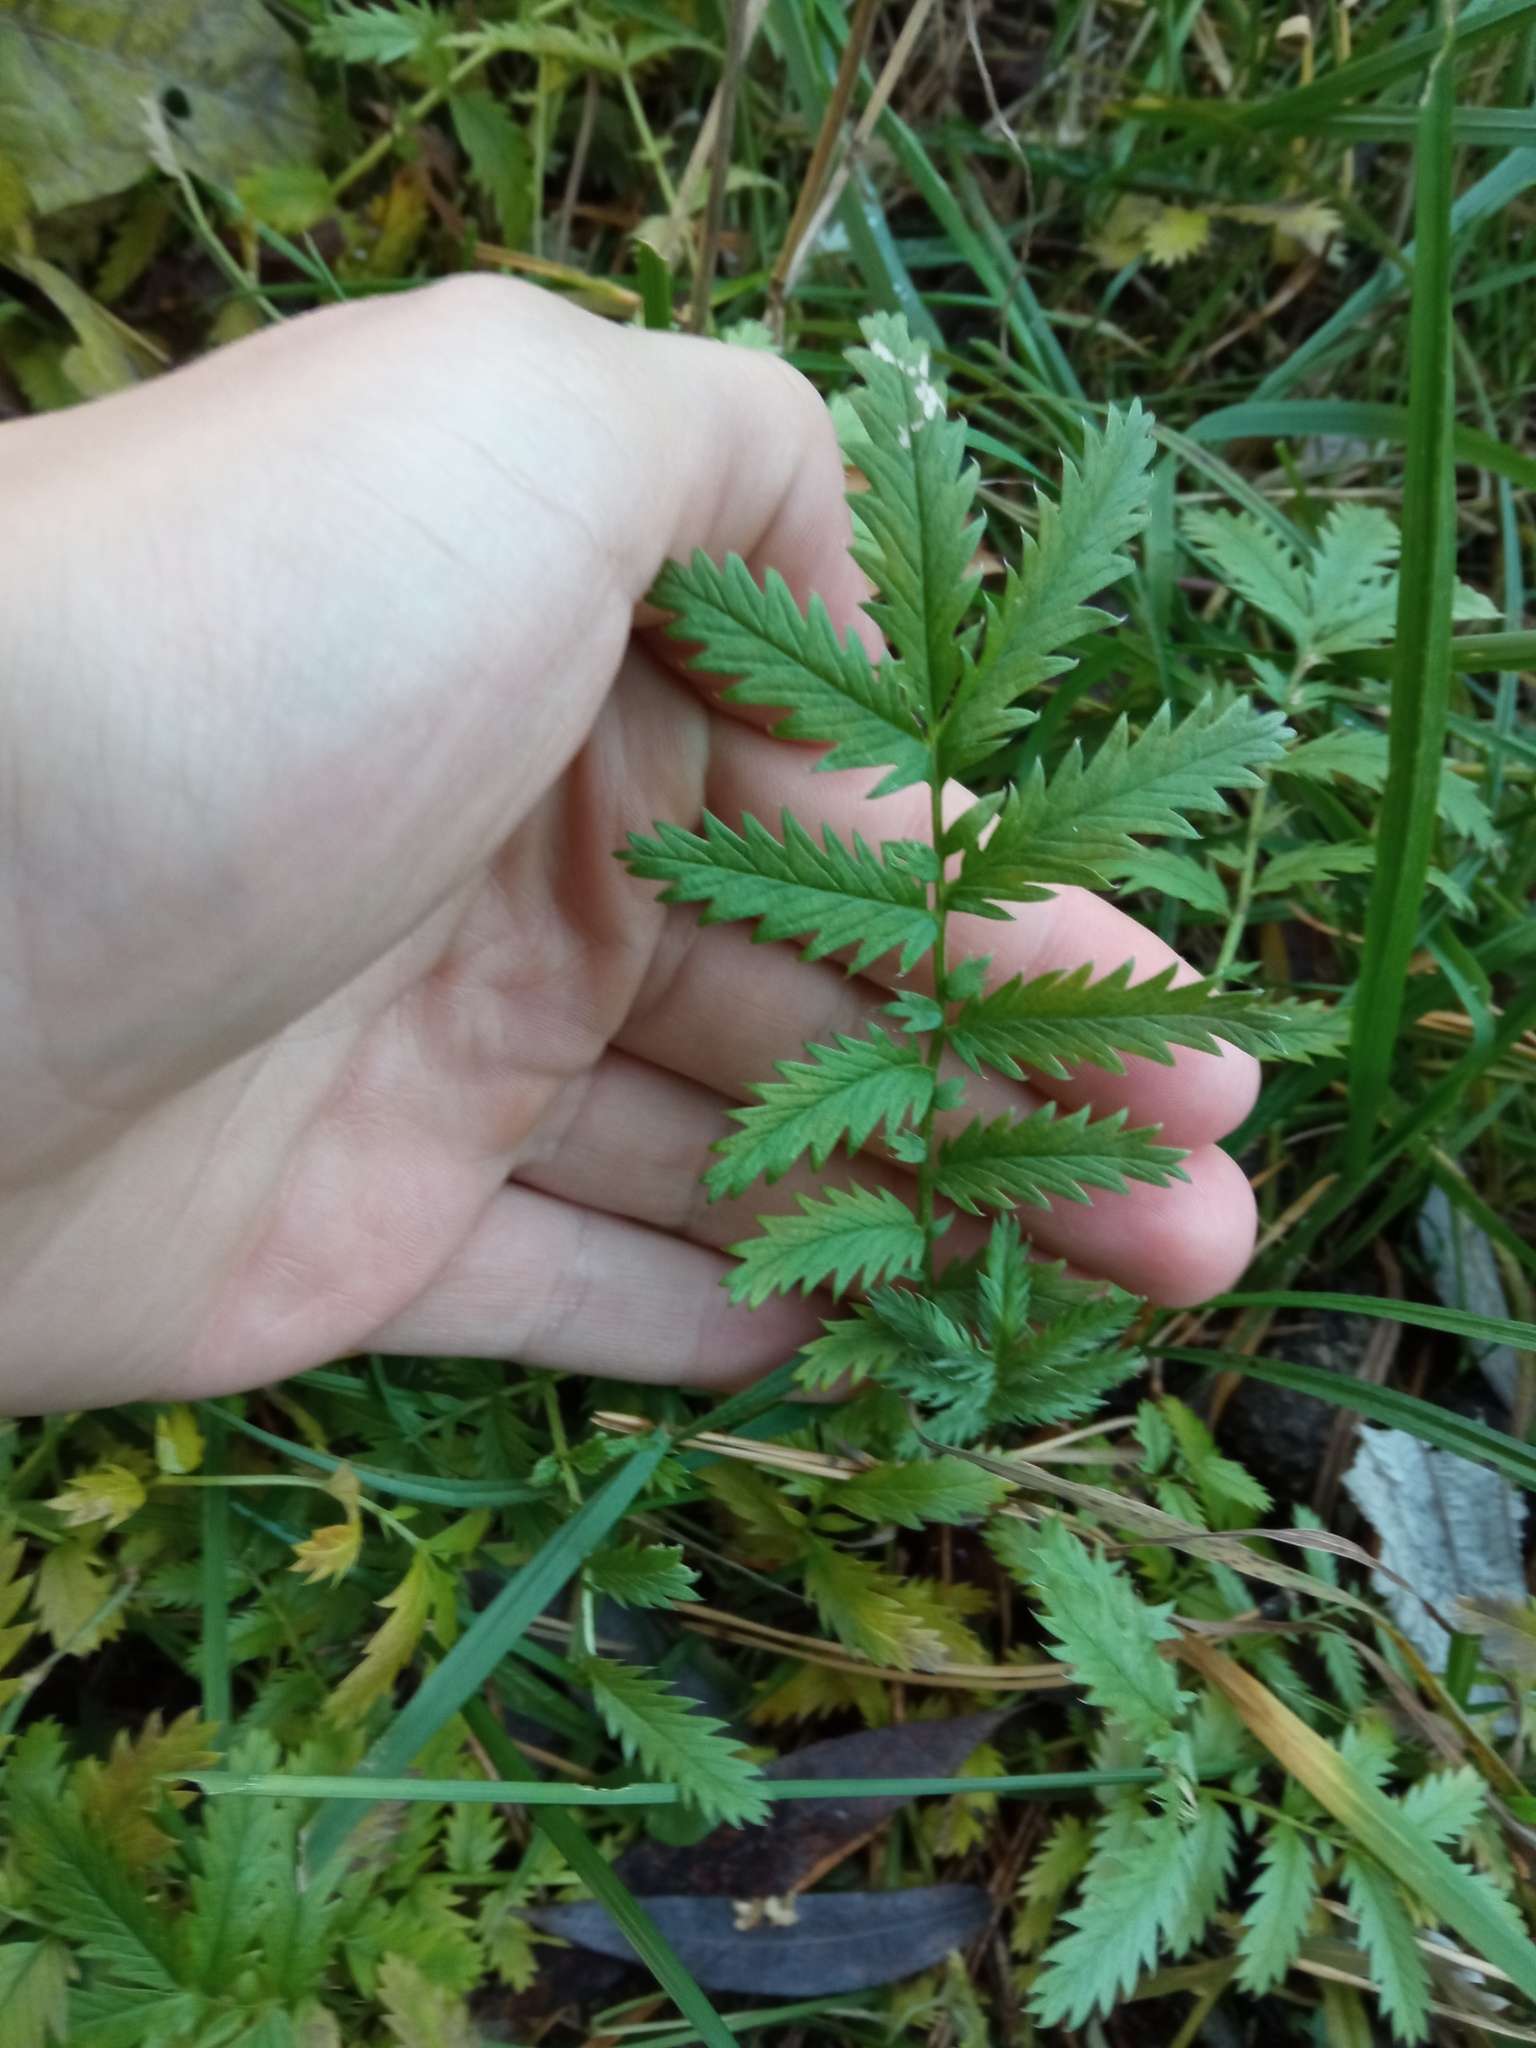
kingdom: Plantae
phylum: Tracheophyta
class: Magnoliopsida
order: Rosales
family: Rosaceae
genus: Argentina
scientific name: Argentina anserina
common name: Common silverweed
